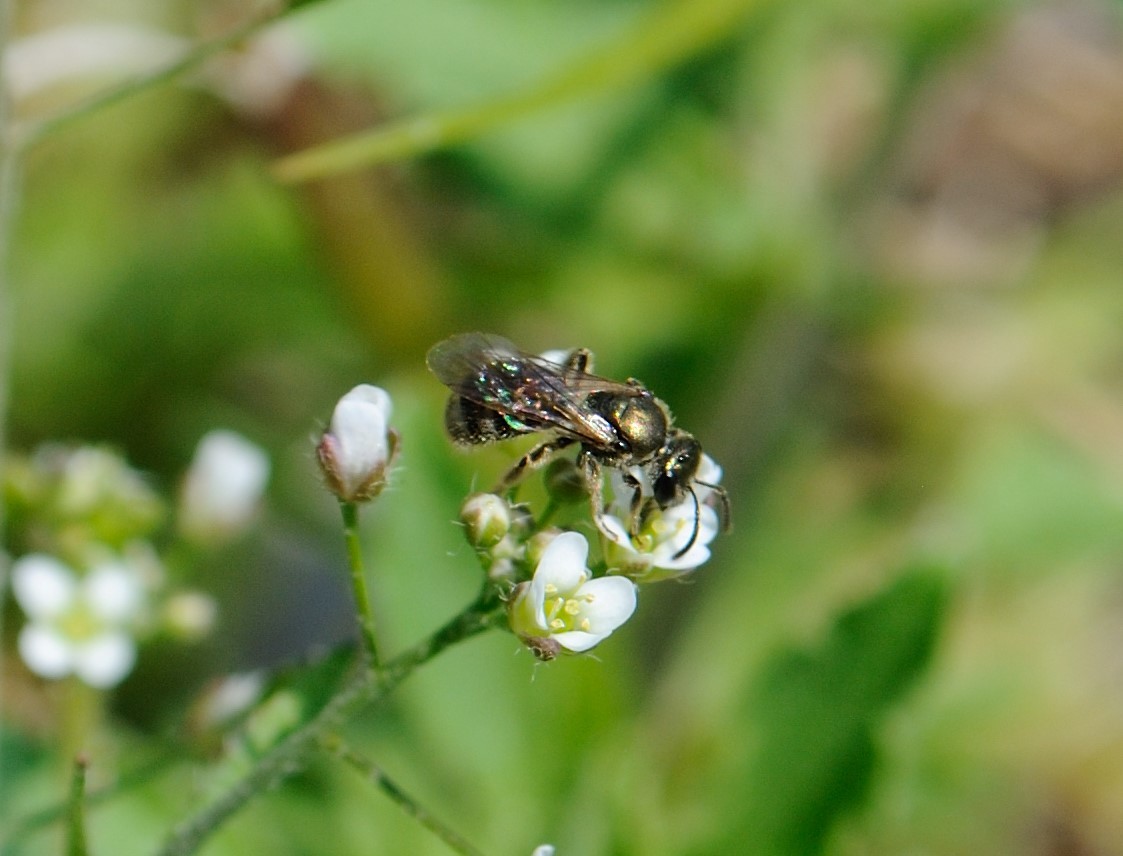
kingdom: Animalia
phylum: Arthropoda
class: Insecta
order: Hymenoptera
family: Halictidae
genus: Dialictus
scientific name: Dialictus
